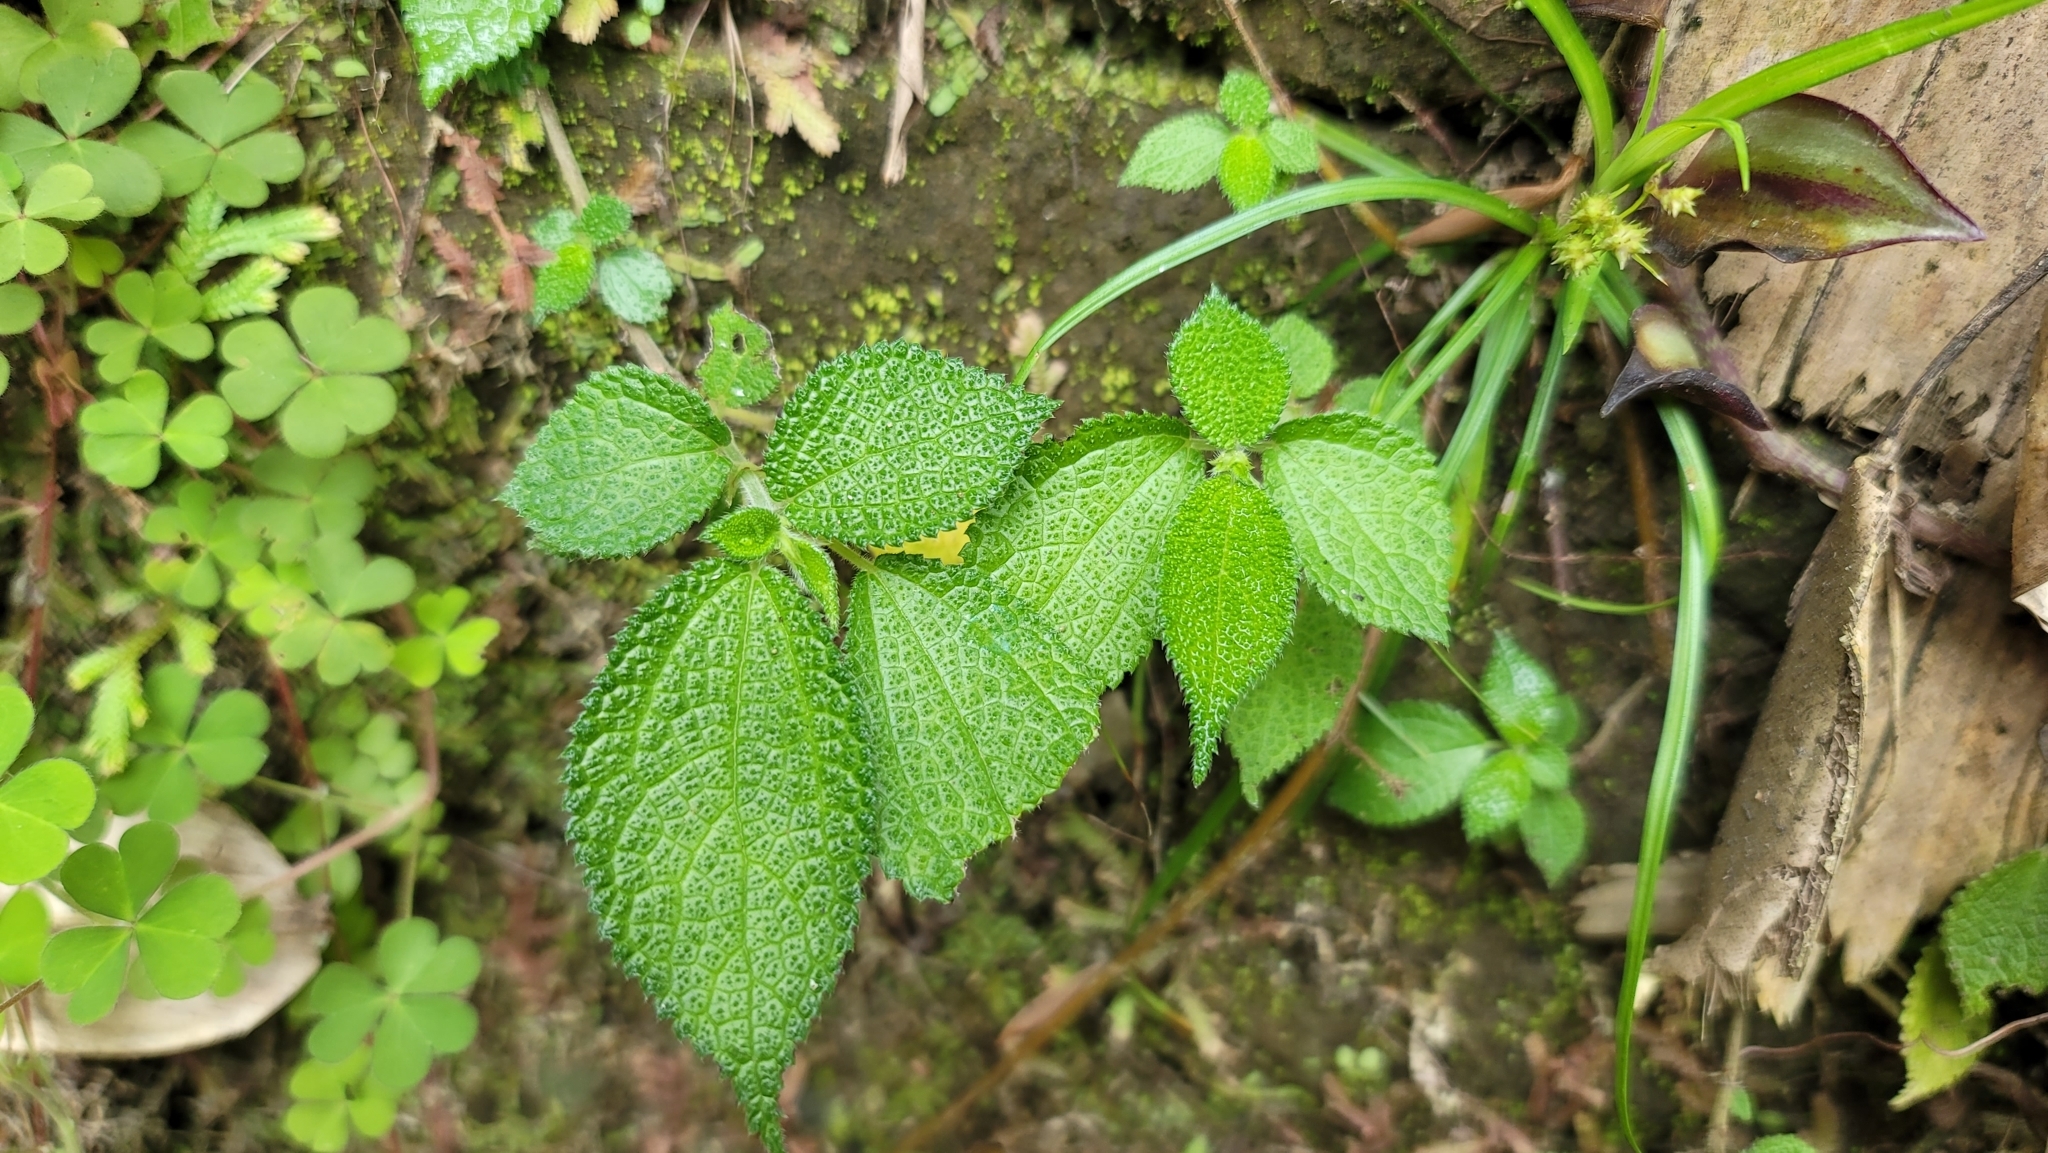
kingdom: Plantae
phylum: Tracheophyta
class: Magnoliopsida
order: Rosales
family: Urticaceae
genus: Boehmeria
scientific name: Boehmeria pilosiuscula
